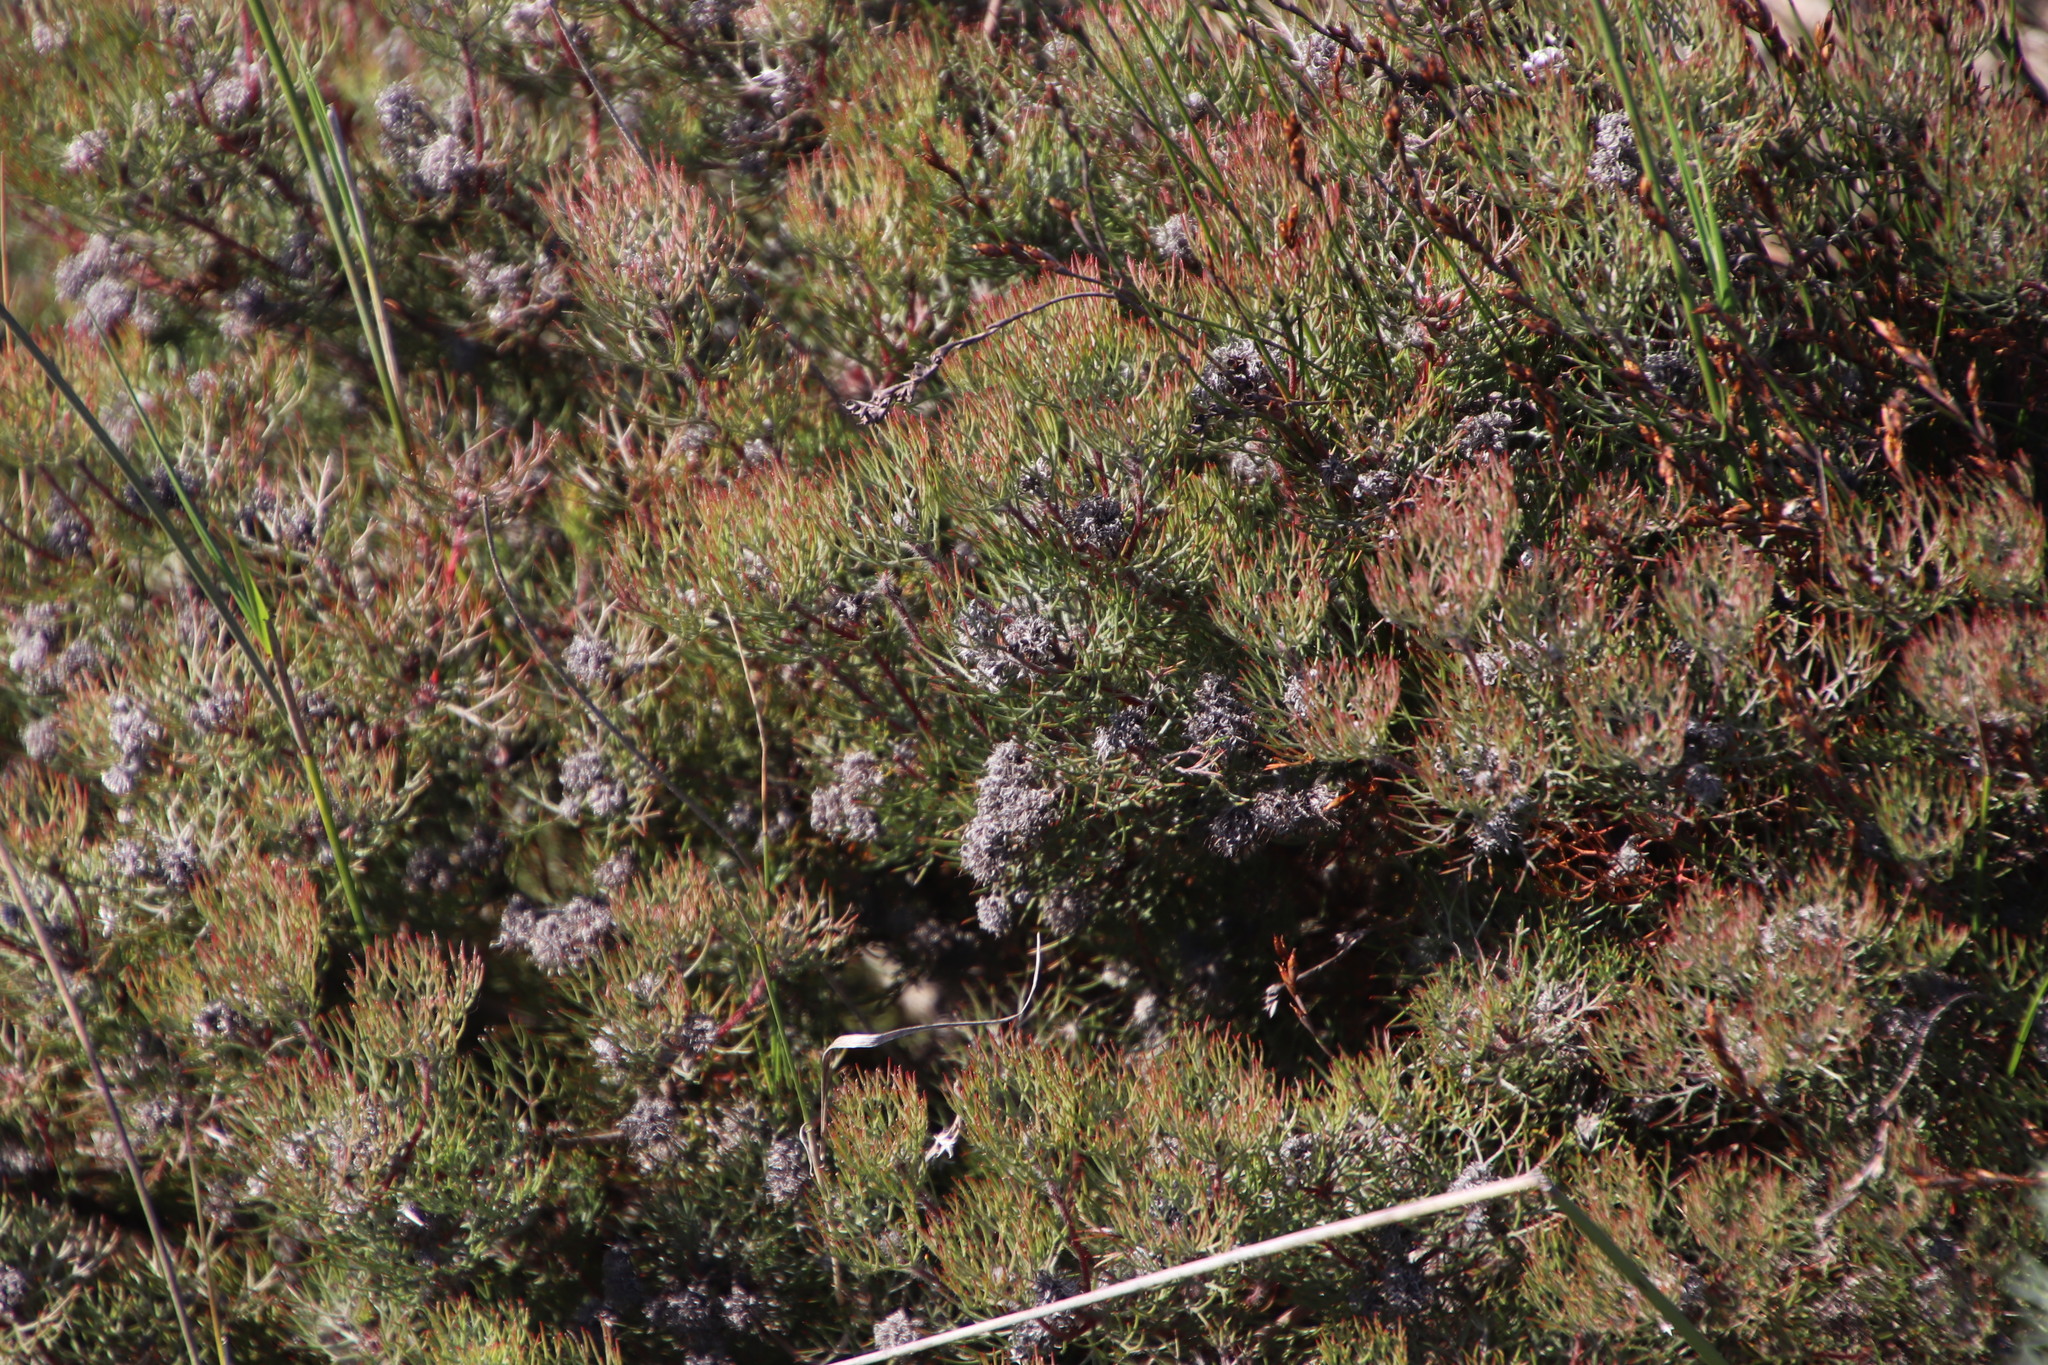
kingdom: Plantae
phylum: Tracheophyta
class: Magnoliopsida
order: Proteales
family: Proteaceae
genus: Serruria
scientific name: Serruria fasciflora
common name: Common pin spiderhead
